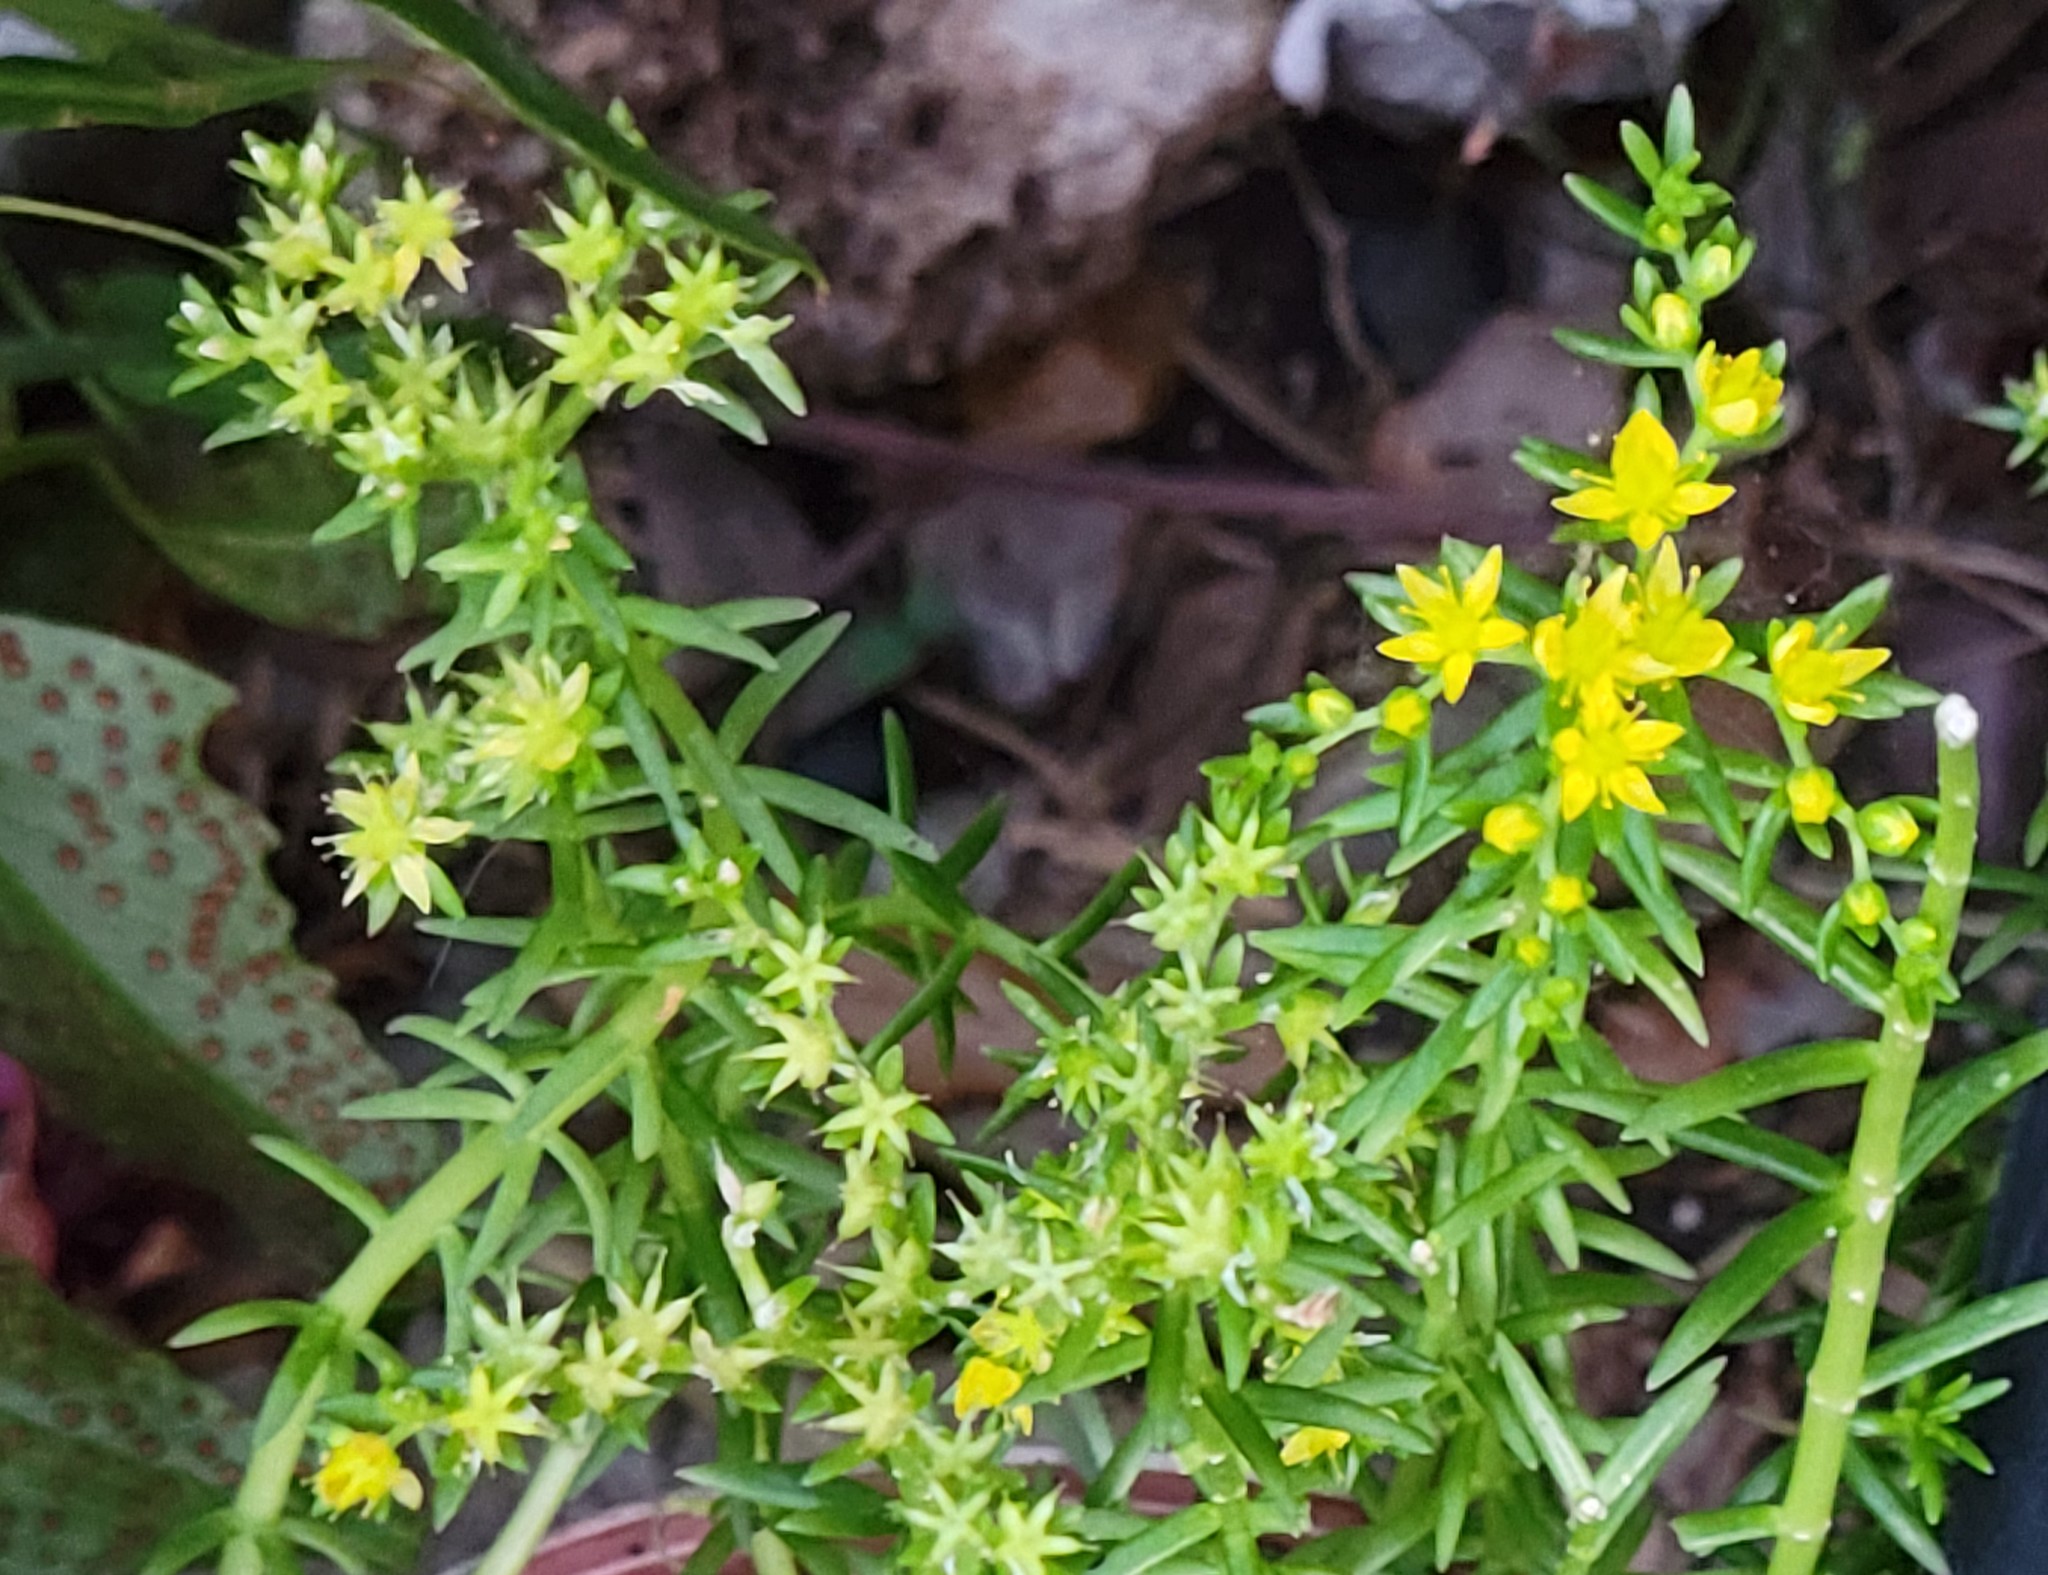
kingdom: Plantae
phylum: Tracheophyta
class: Magnoliopsida
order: Saxifragales
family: Crassulaceae
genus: Sedum
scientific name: Sedum mexicanum
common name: Mexican stonecrop
